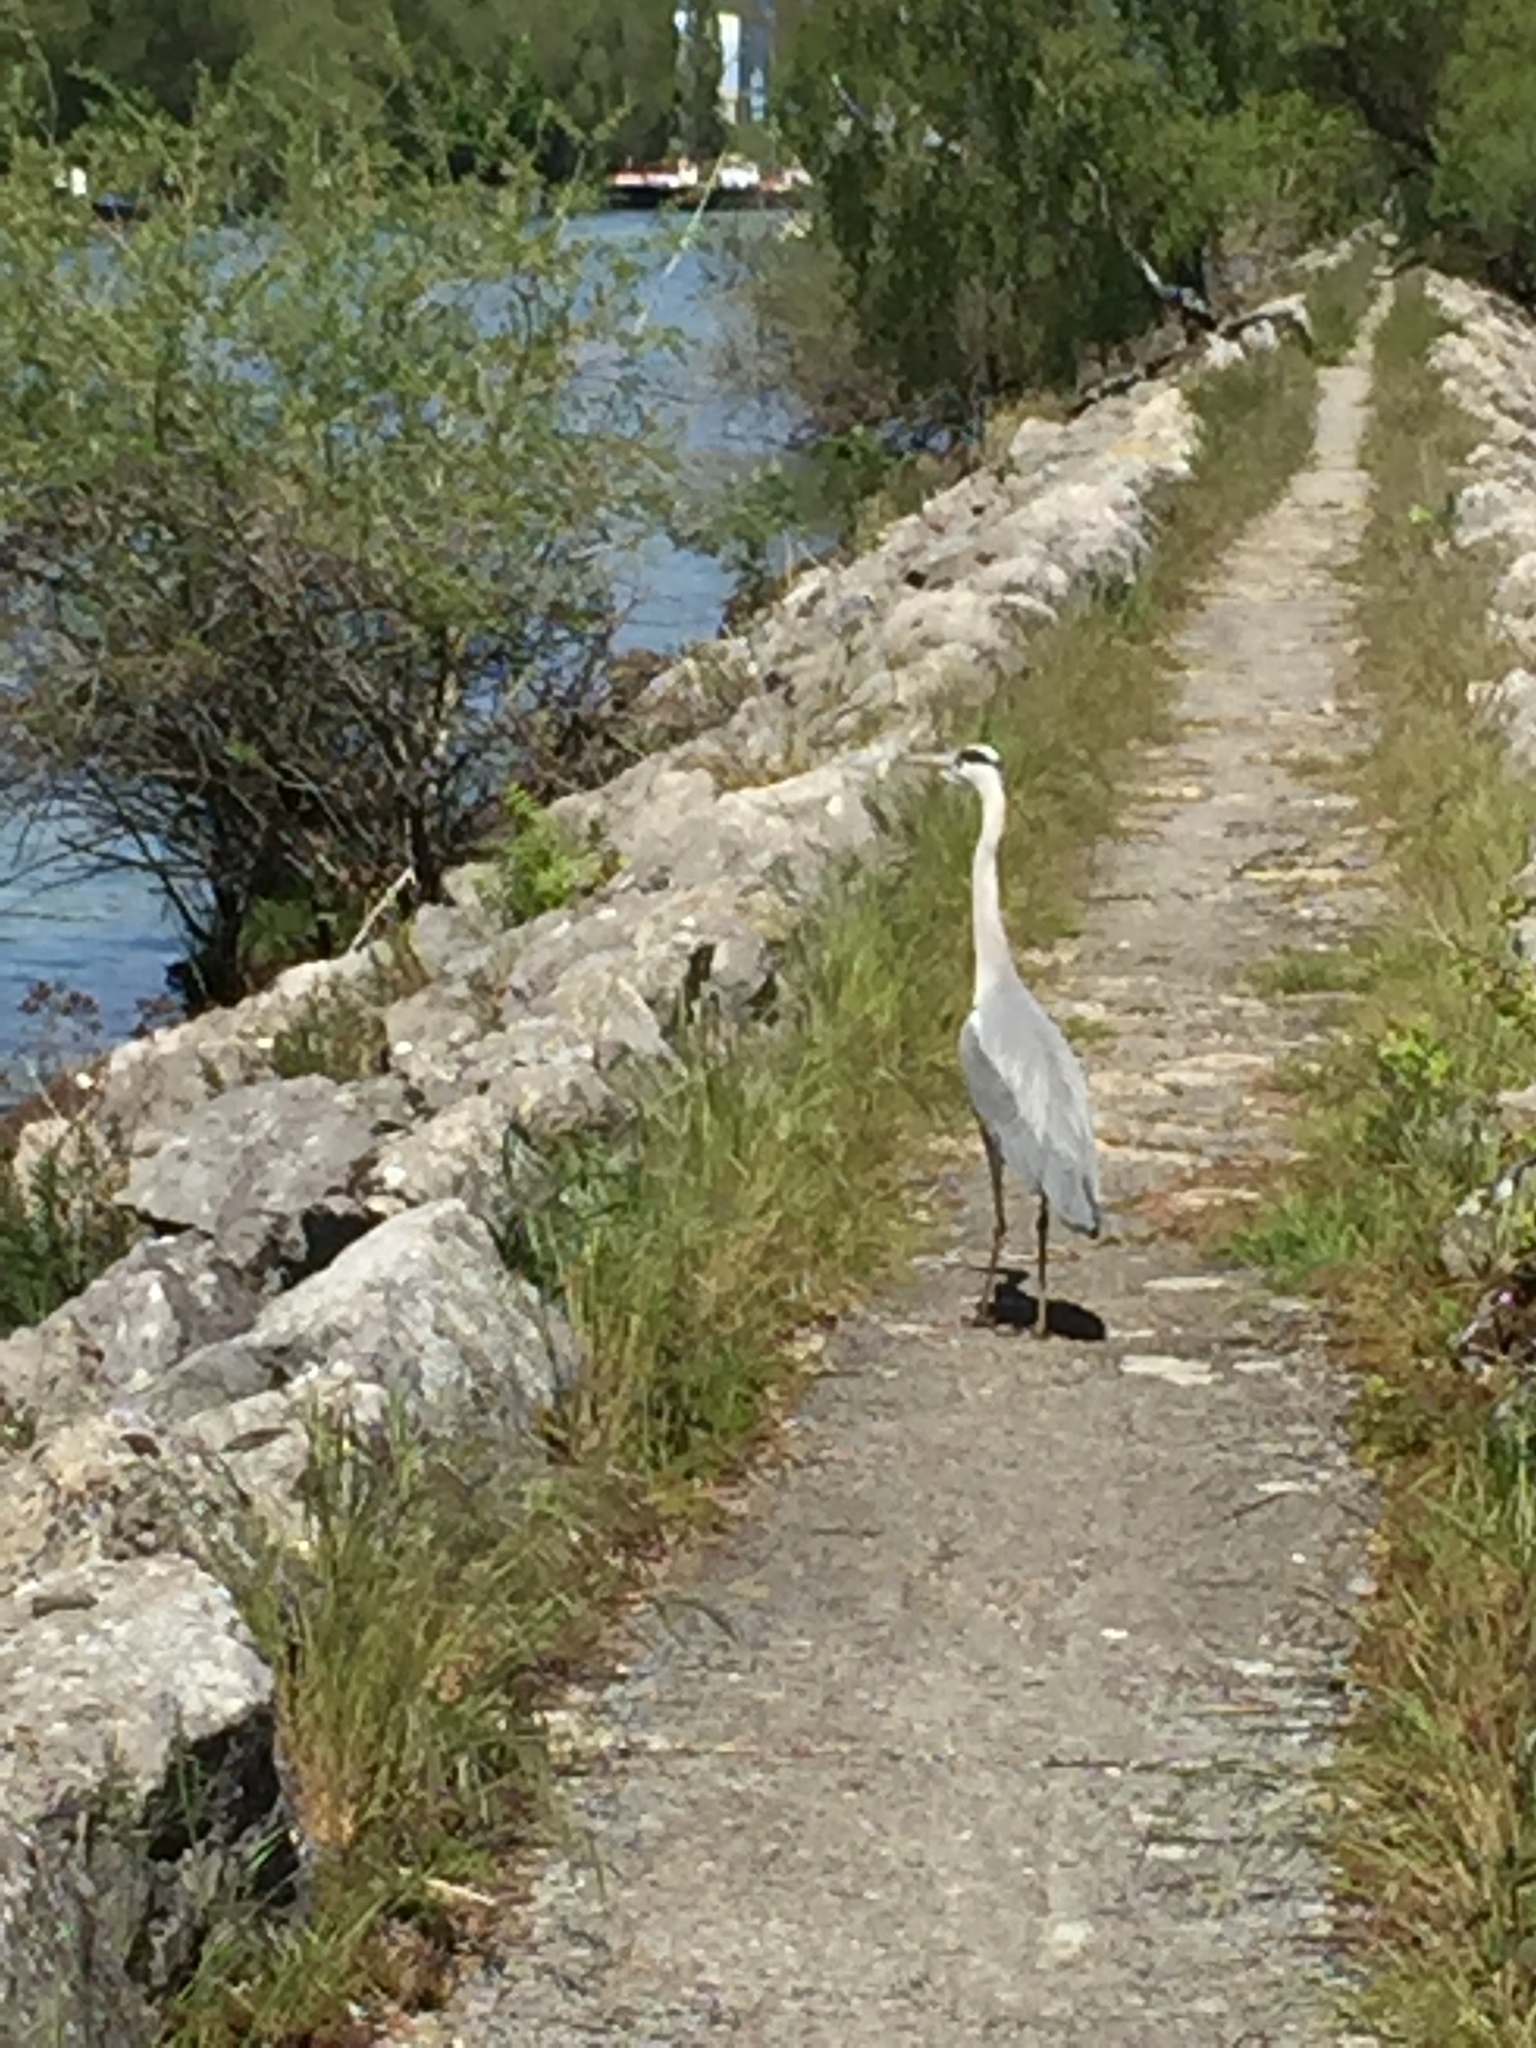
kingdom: Animalia
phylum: Chordata
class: Aves
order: Pelecaniformes
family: Ardeidae
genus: Ardea
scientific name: Ardea cinerea
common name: Grey heron
